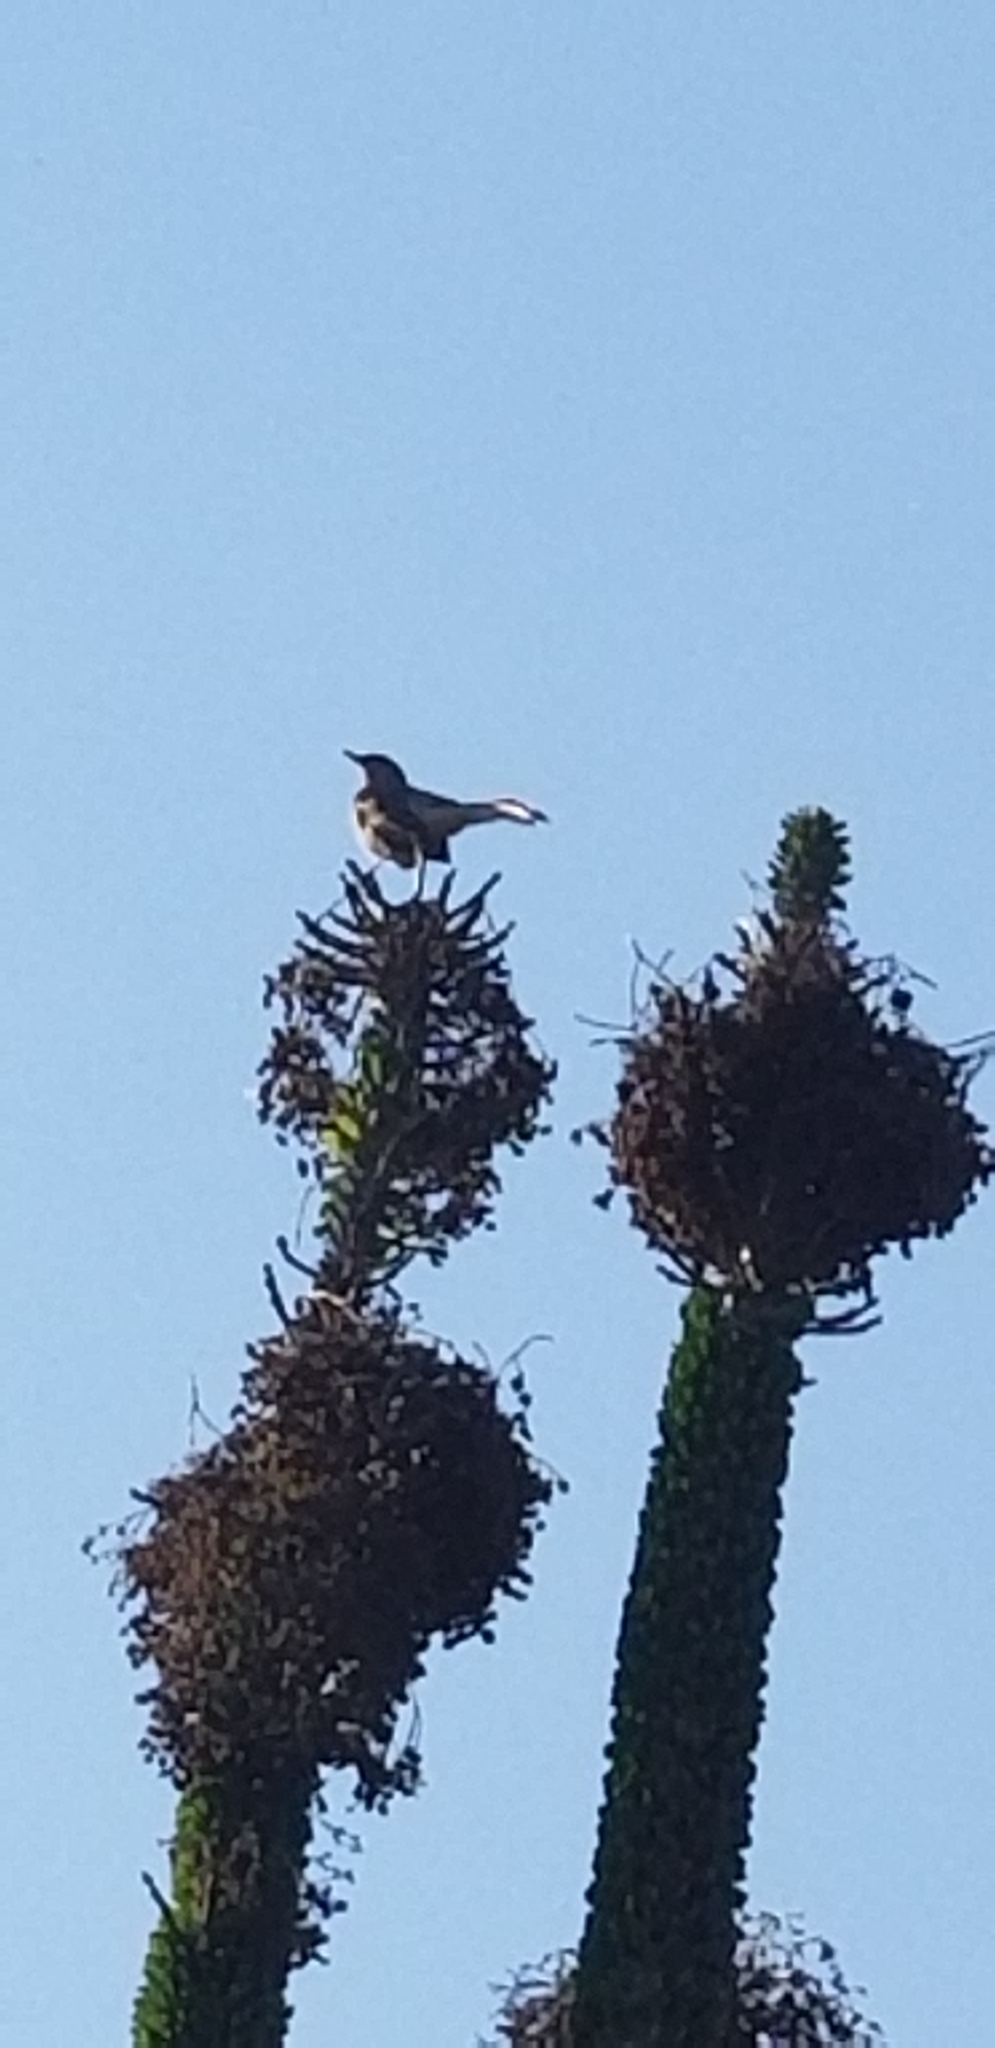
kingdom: Animalia
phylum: Chordata
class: Aves
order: Passeriformes
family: Mimidae
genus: Mimus
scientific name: Mimus polyglottos
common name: Northern mockingbird
